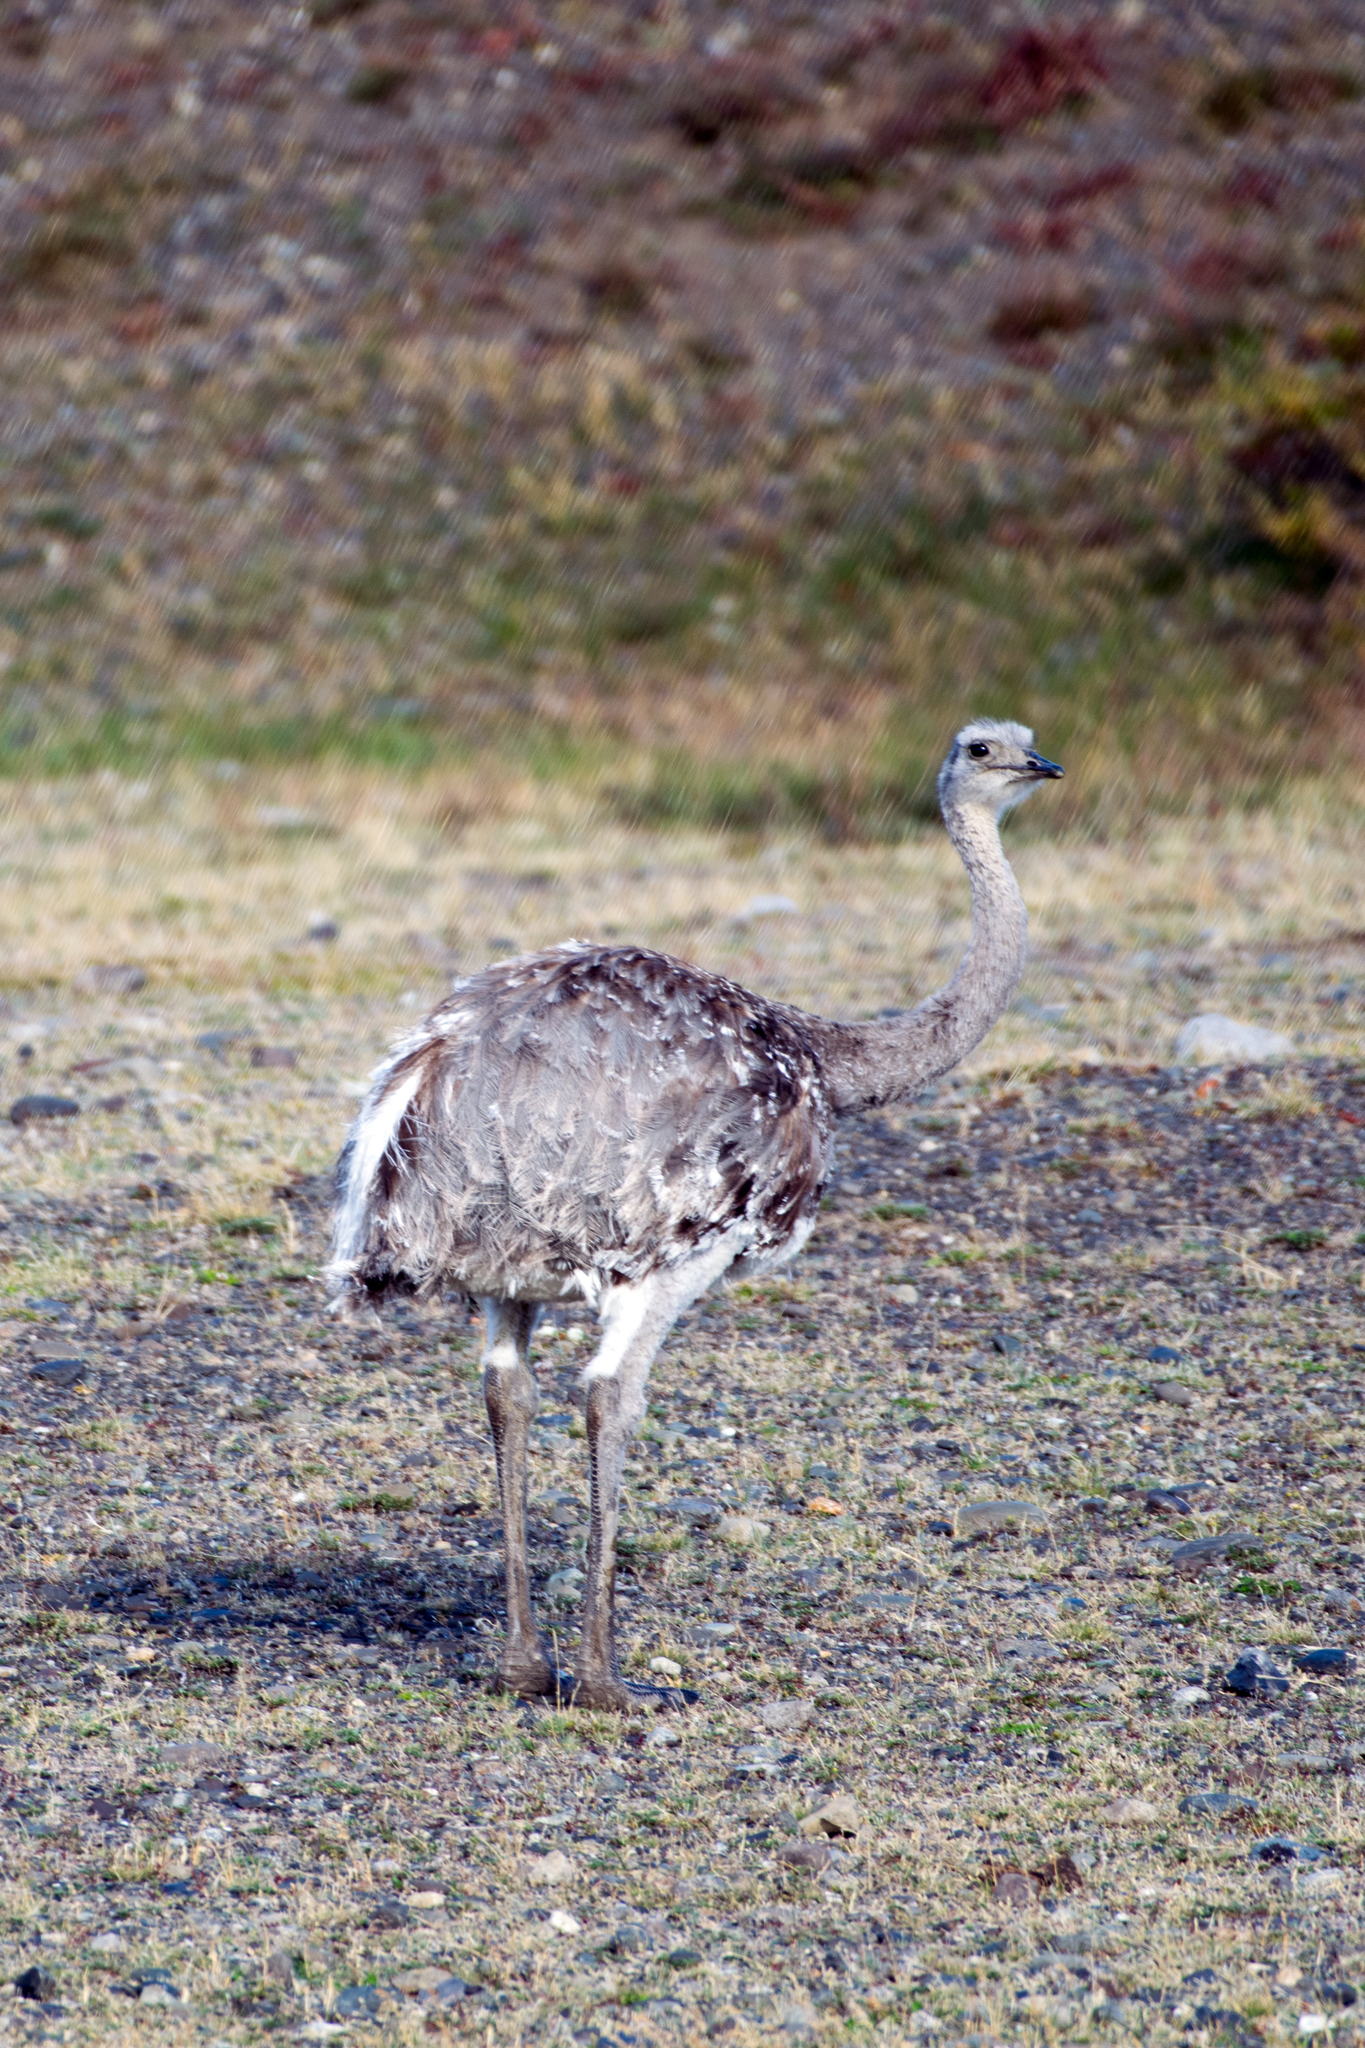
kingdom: Animalia
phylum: Chordata
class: Aves
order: Rheiformes
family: Rheidae
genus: Rhea
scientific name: Rhea pennata
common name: Lesser rhea
